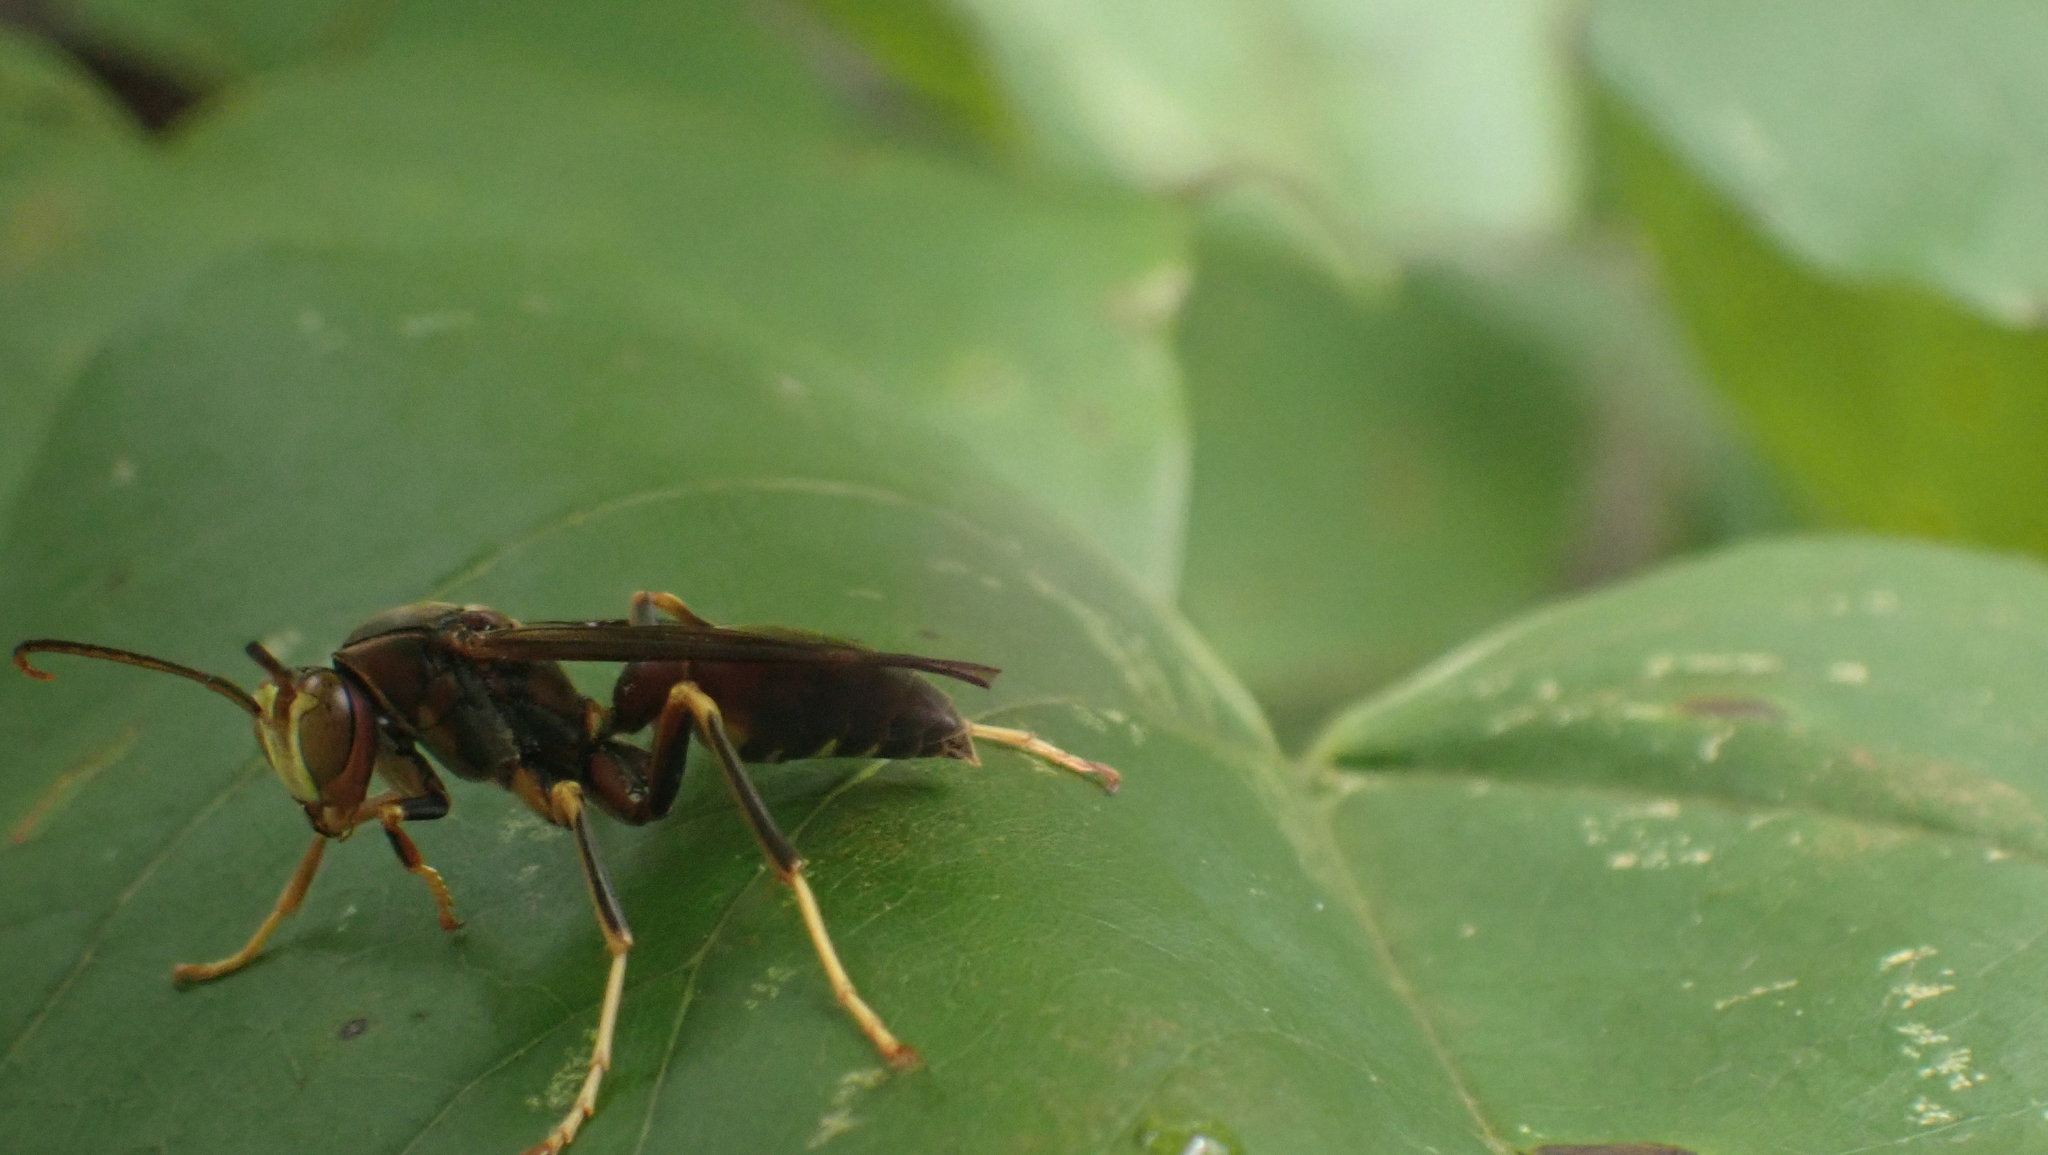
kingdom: Animalia
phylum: Arthropoda
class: Insecta
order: Hymenoptera
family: Eumenidae
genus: Polistes
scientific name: Polistes metricus
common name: Metric paper wasp
